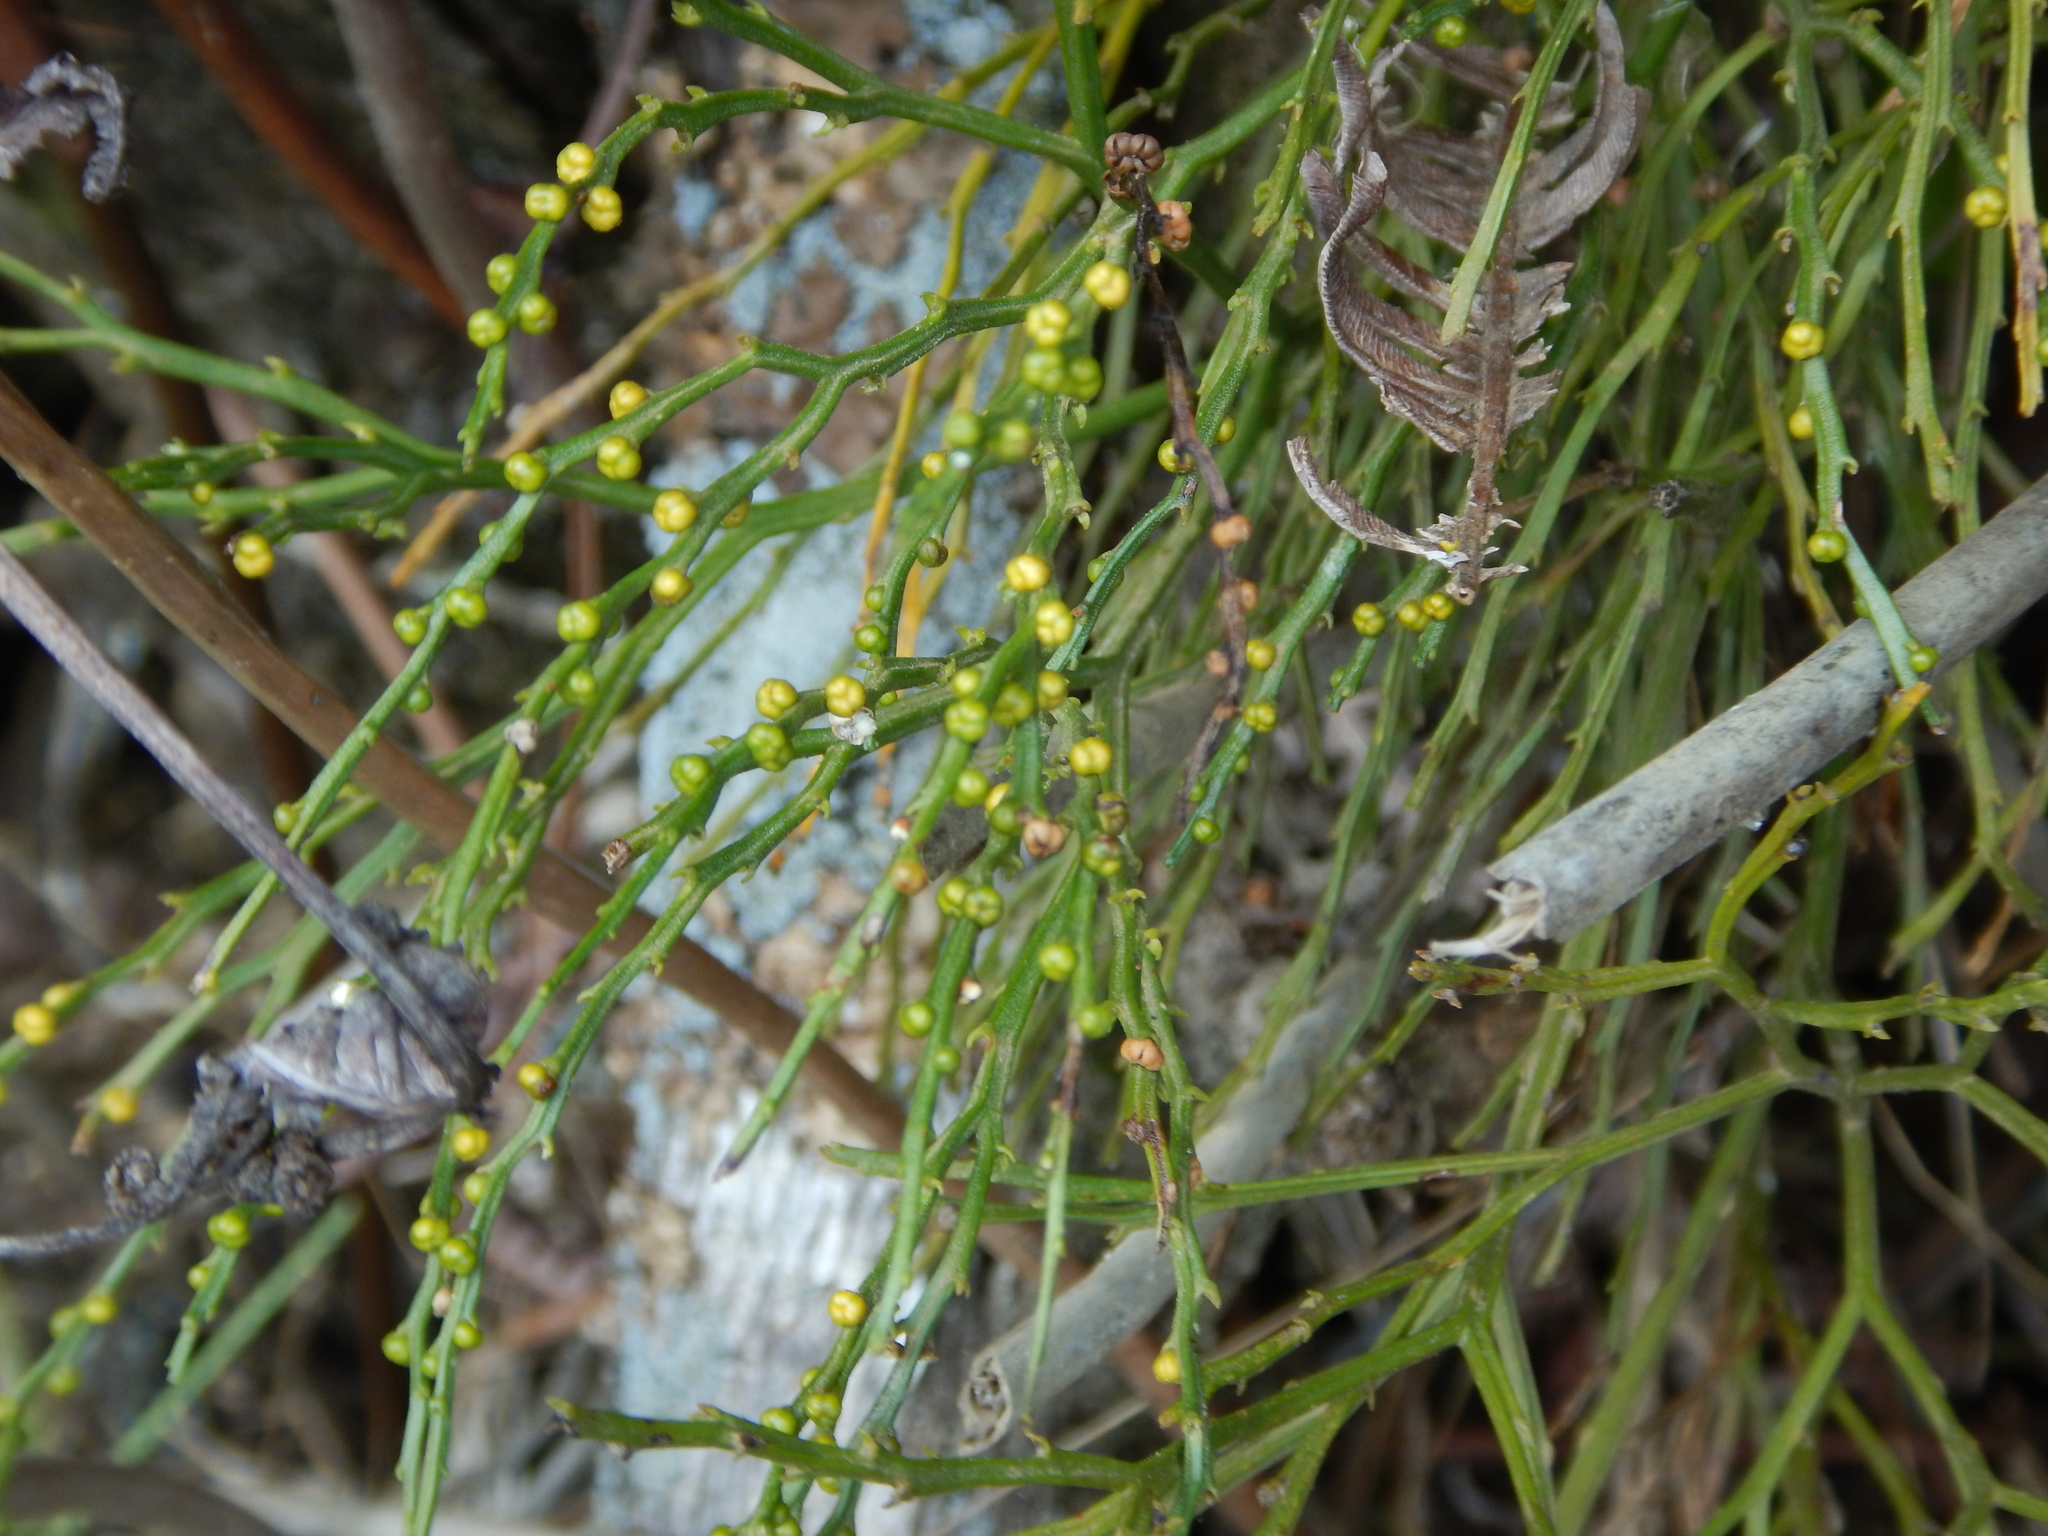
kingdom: Plantae
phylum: Tracheophyta
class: Polypodiopsida
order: Psilotales
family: Psilotaceae
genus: Psilotum
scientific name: Psilotum nudum
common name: Skeleton fork fern
